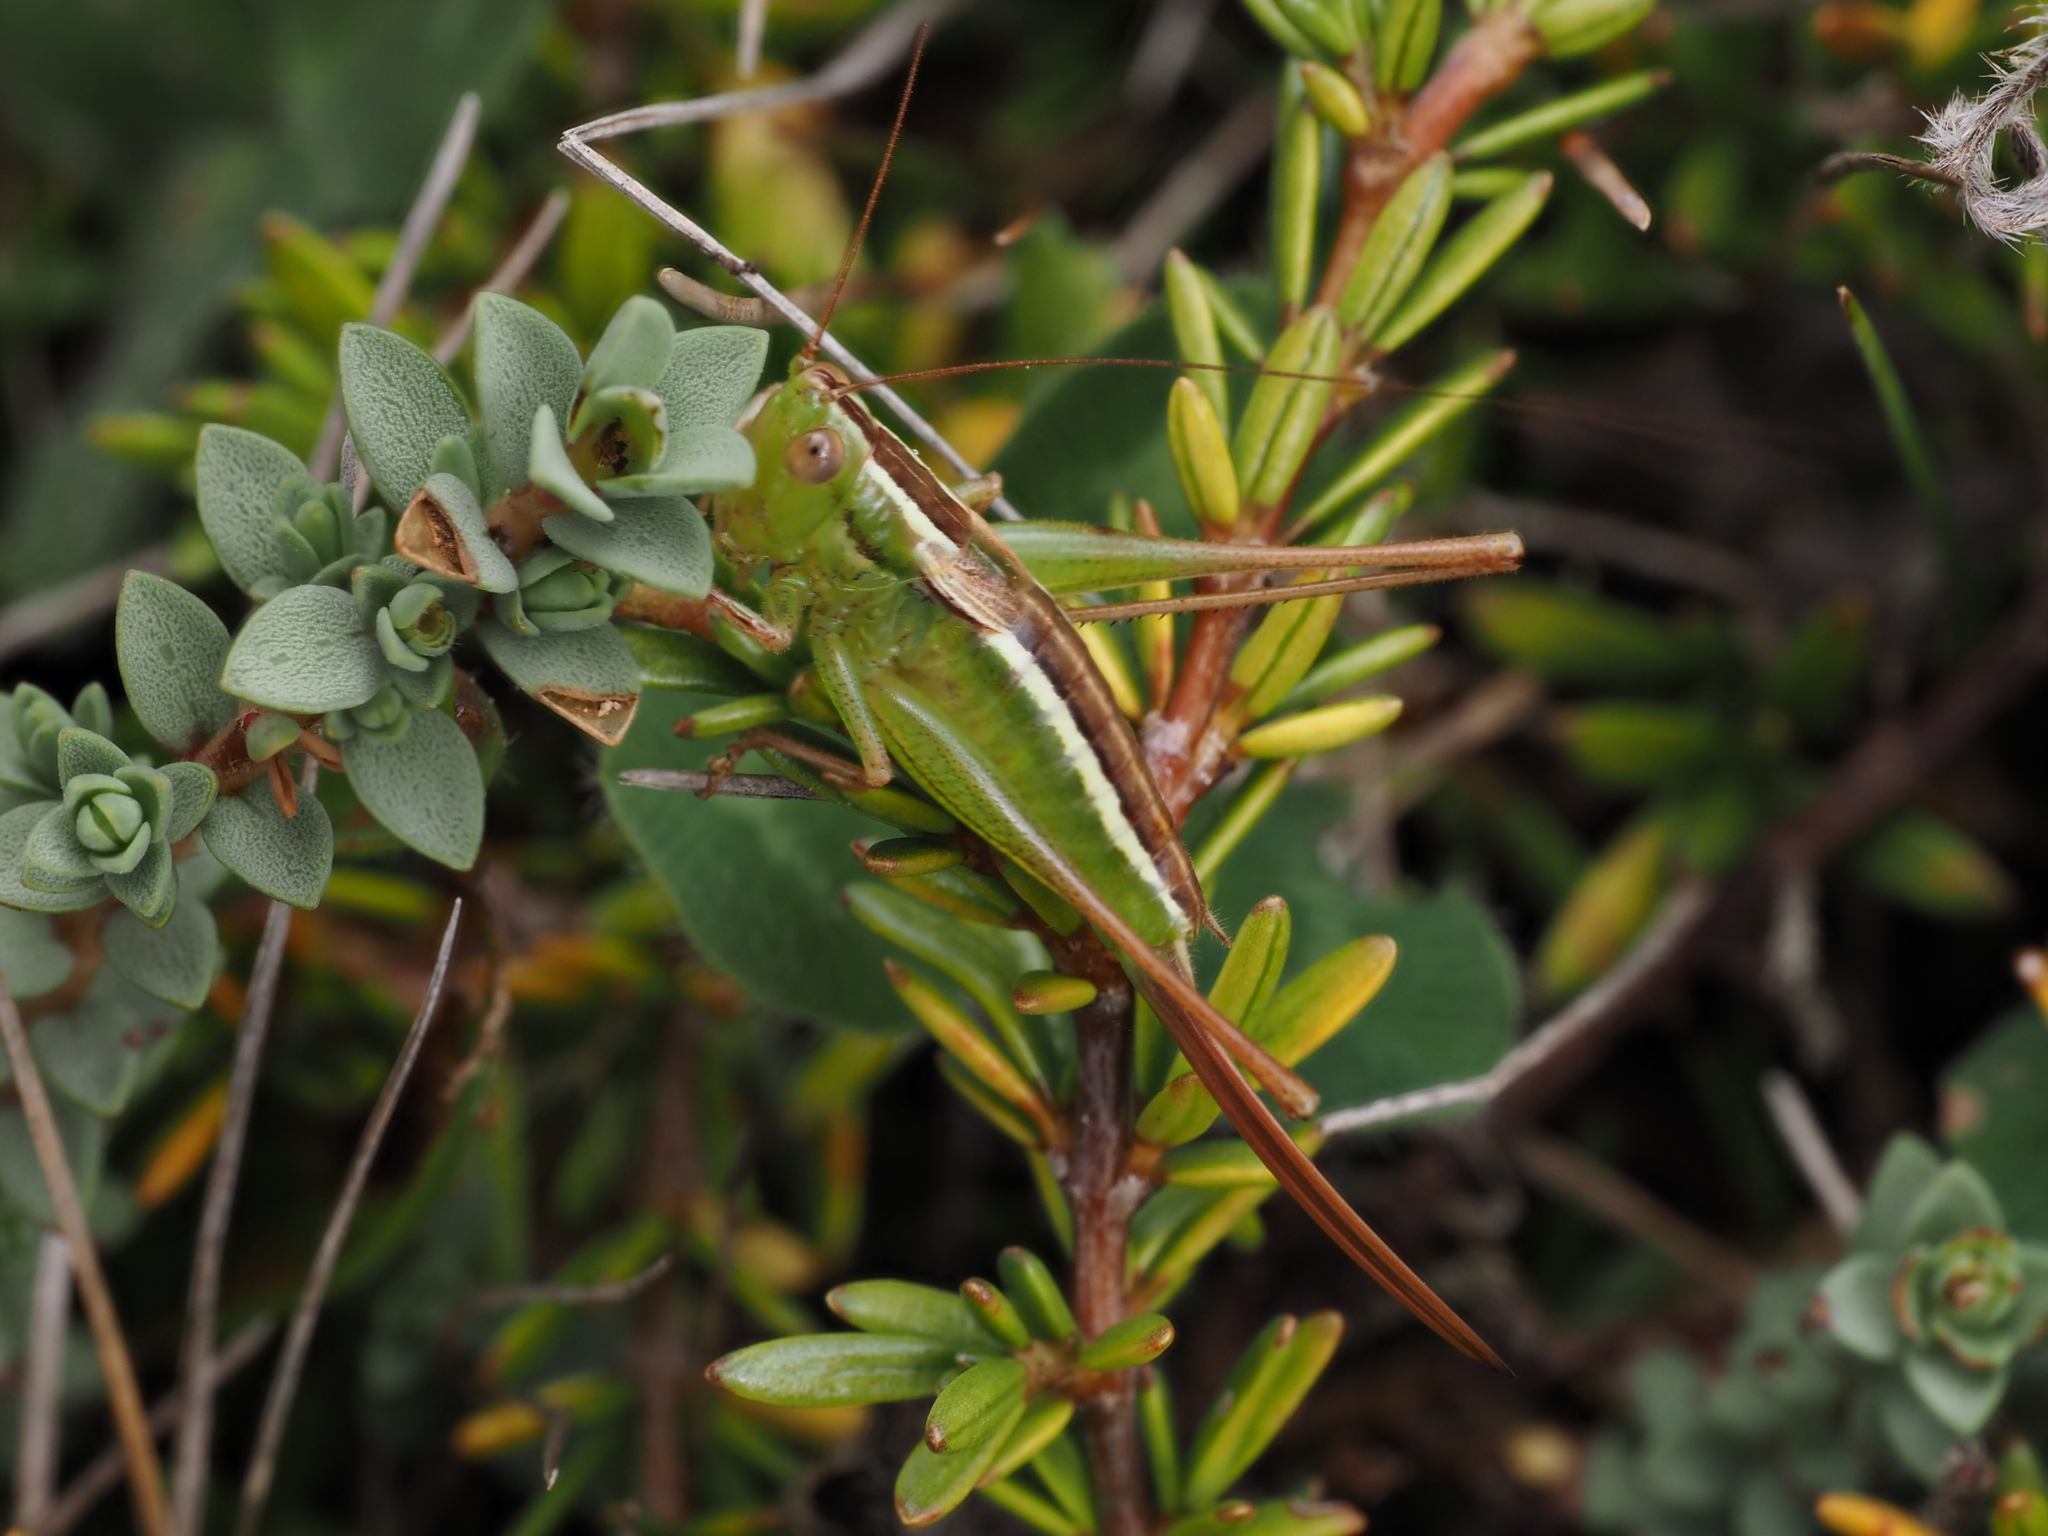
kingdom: Animalia
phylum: Arthropoda
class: Insecta
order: Orthoptera
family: Tettigoniidae
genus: Conocephalus
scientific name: Conocephalus bilineatus
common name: Small meadow katydid
